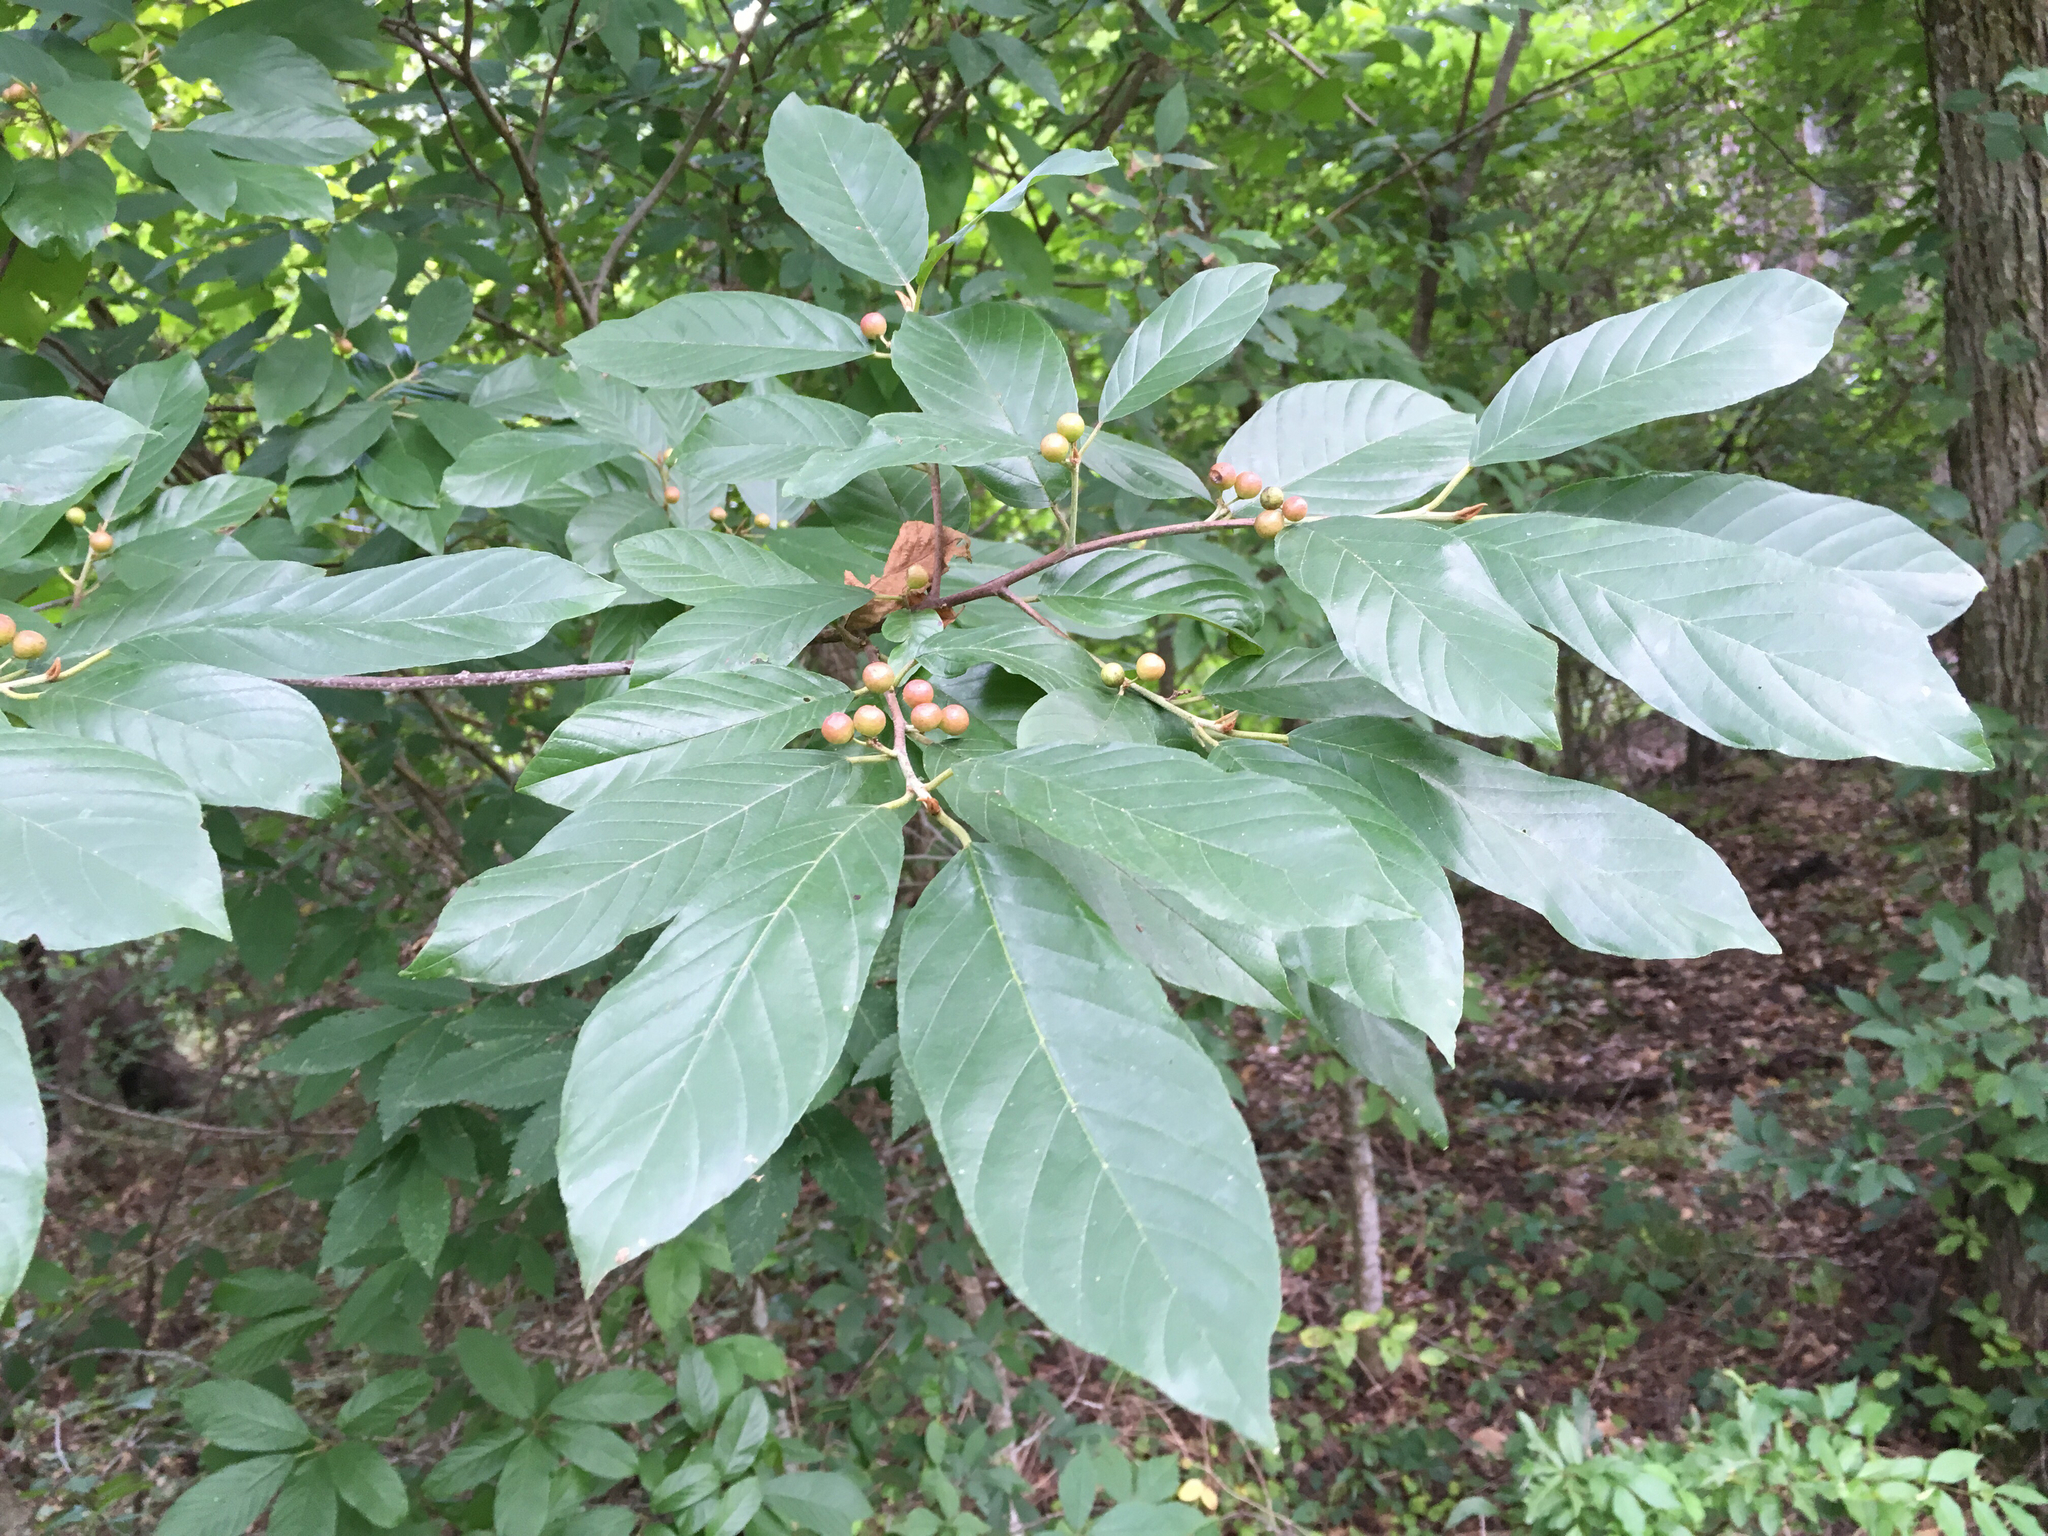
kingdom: Plantae
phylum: Tracheophyta
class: Magnoliopsida
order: Rosales
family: Rhamnaceae
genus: Frangula
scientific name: Frangula caroliniana
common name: Carolina buckthorn
